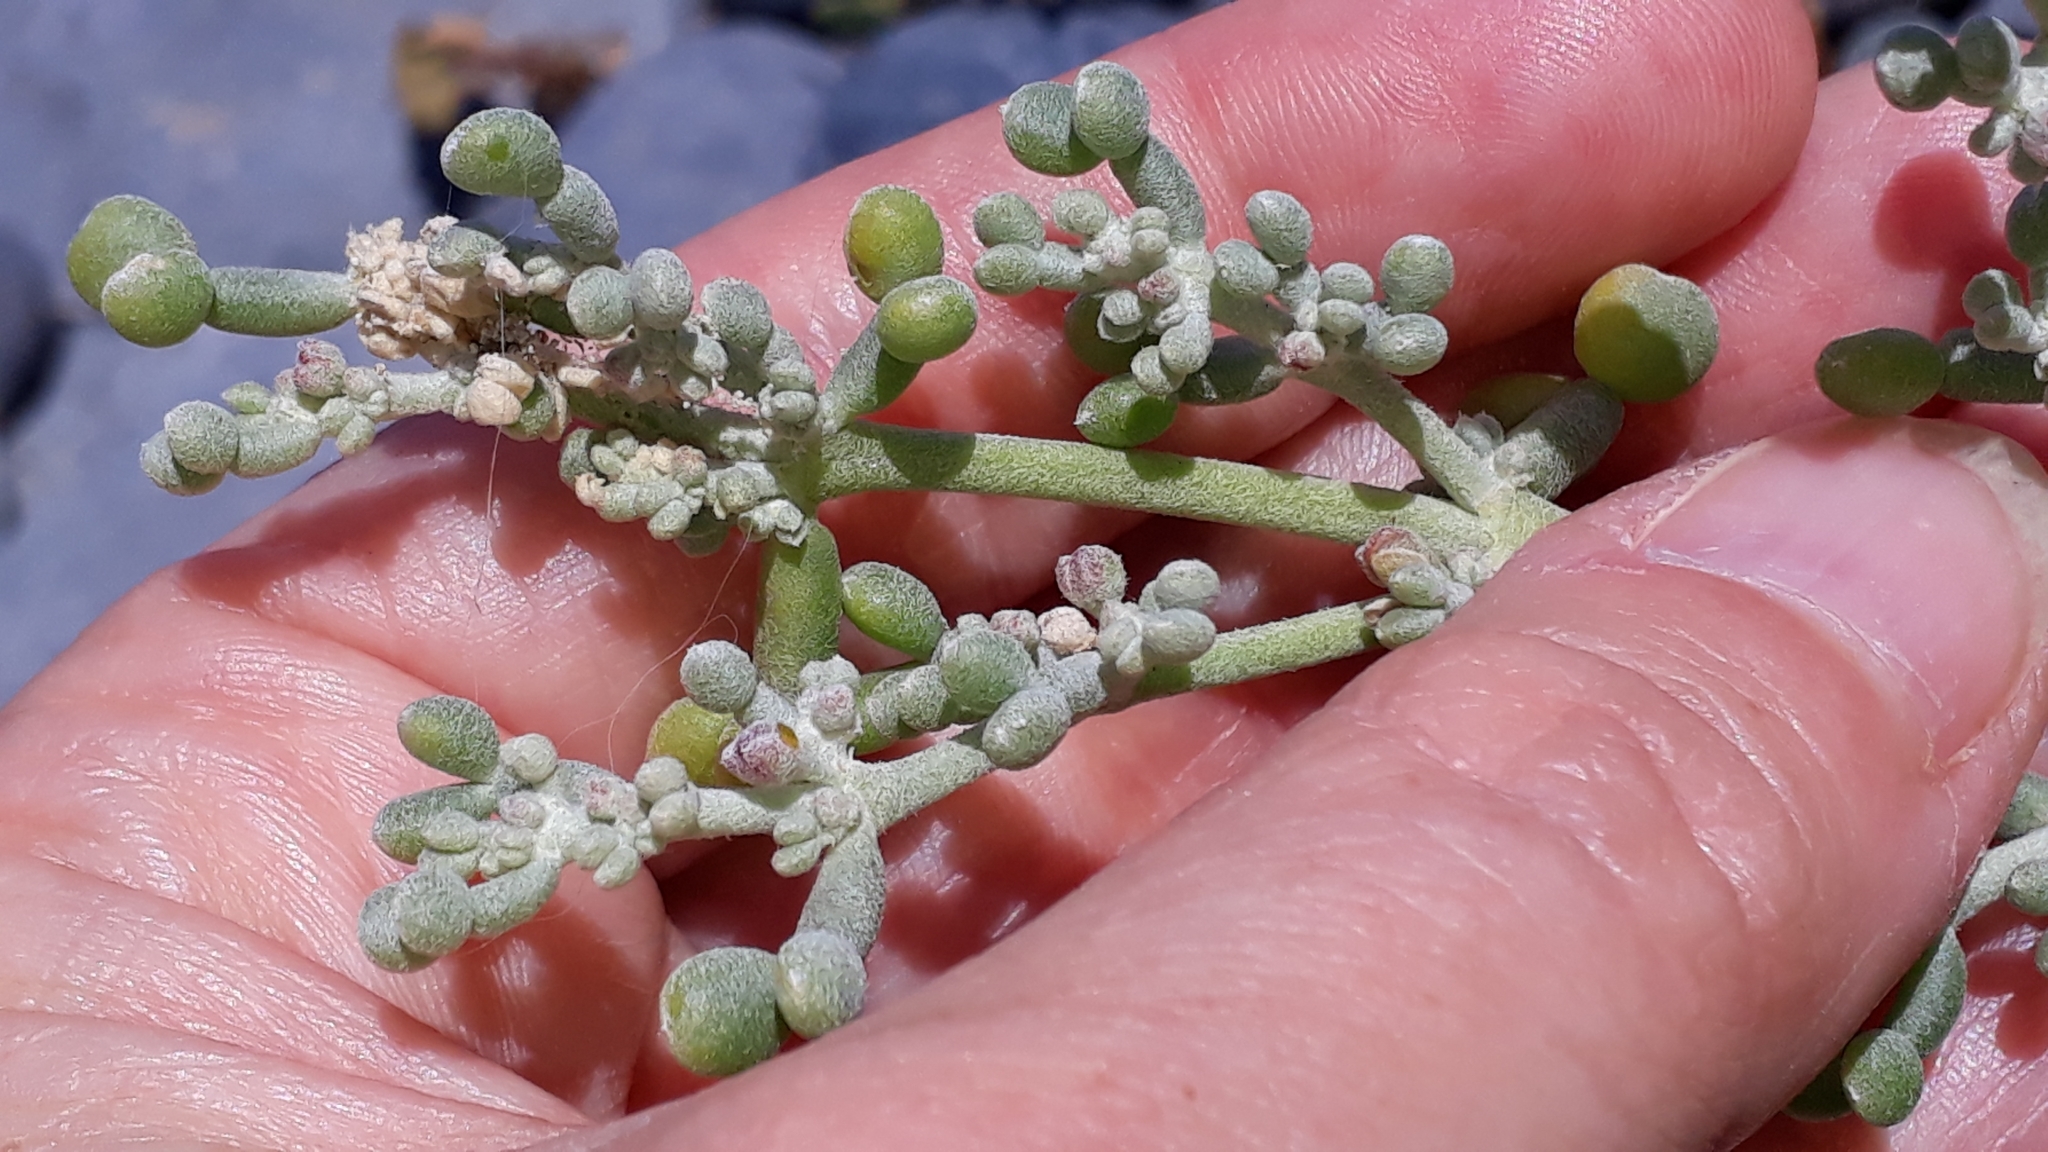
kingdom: Plantae
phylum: Tracheophyta
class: Magnoliopsida
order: Zygophyllales
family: Zygophyllaceae
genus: Tetraena
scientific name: Tetraena fontanesii
